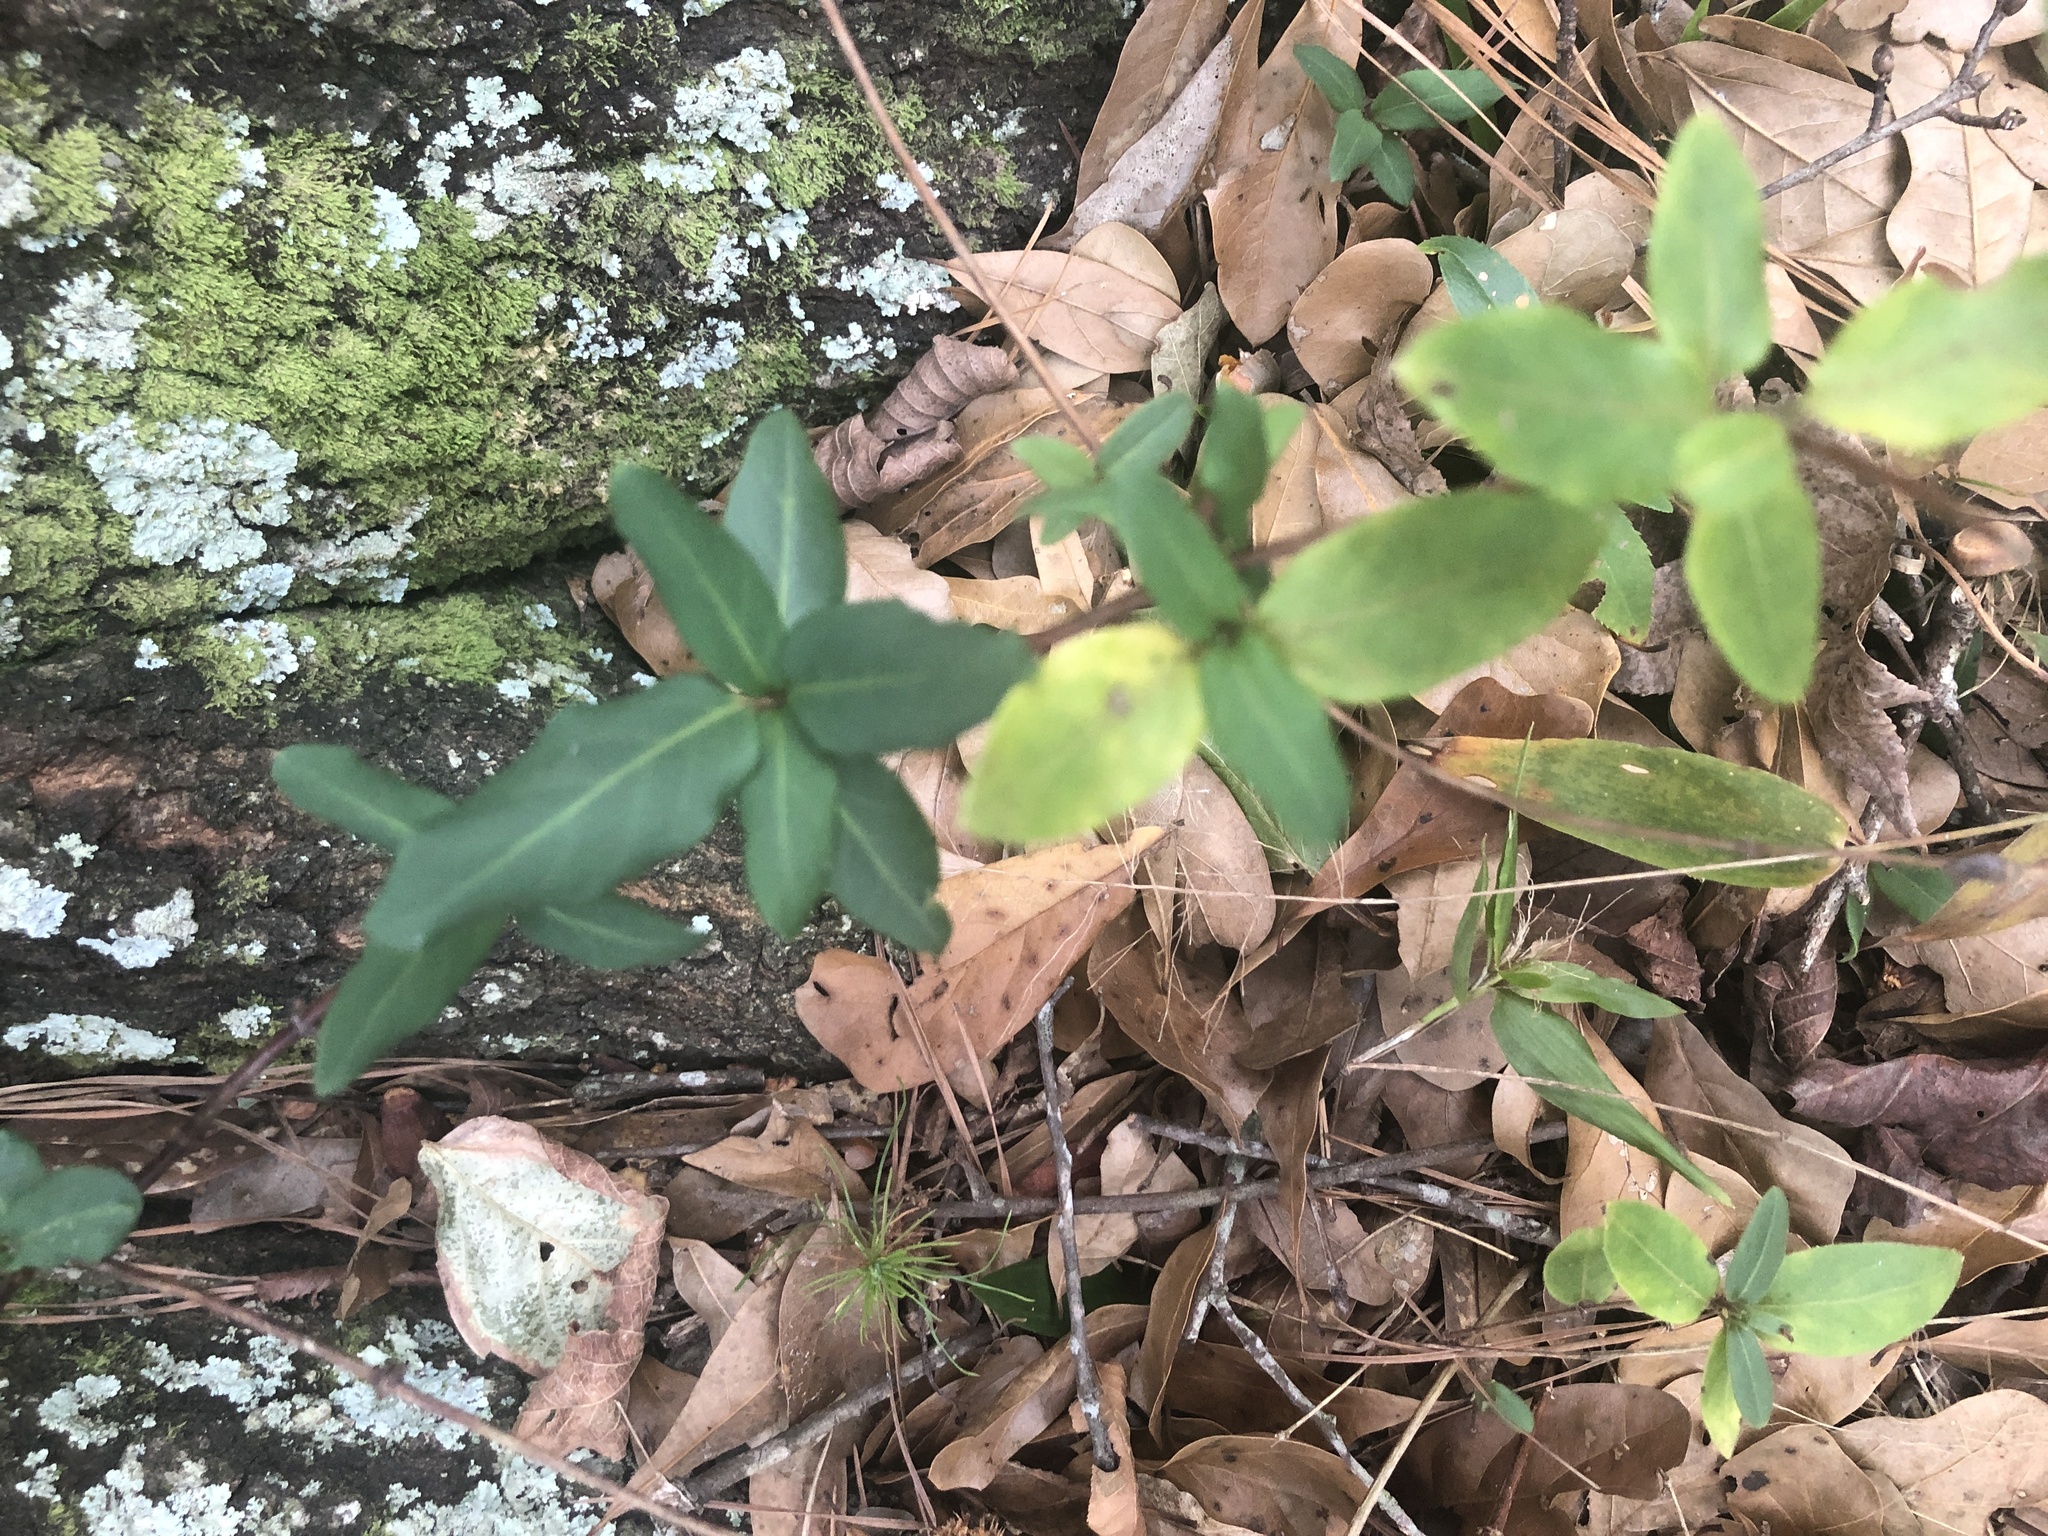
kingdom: Plantae
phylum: Tracheophyta
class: Magnoliopsida
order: Dipsacales
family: Caprifoliaceae
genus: Lonicera
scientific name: Lonicera japonica
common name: Japanese honeysuckle
